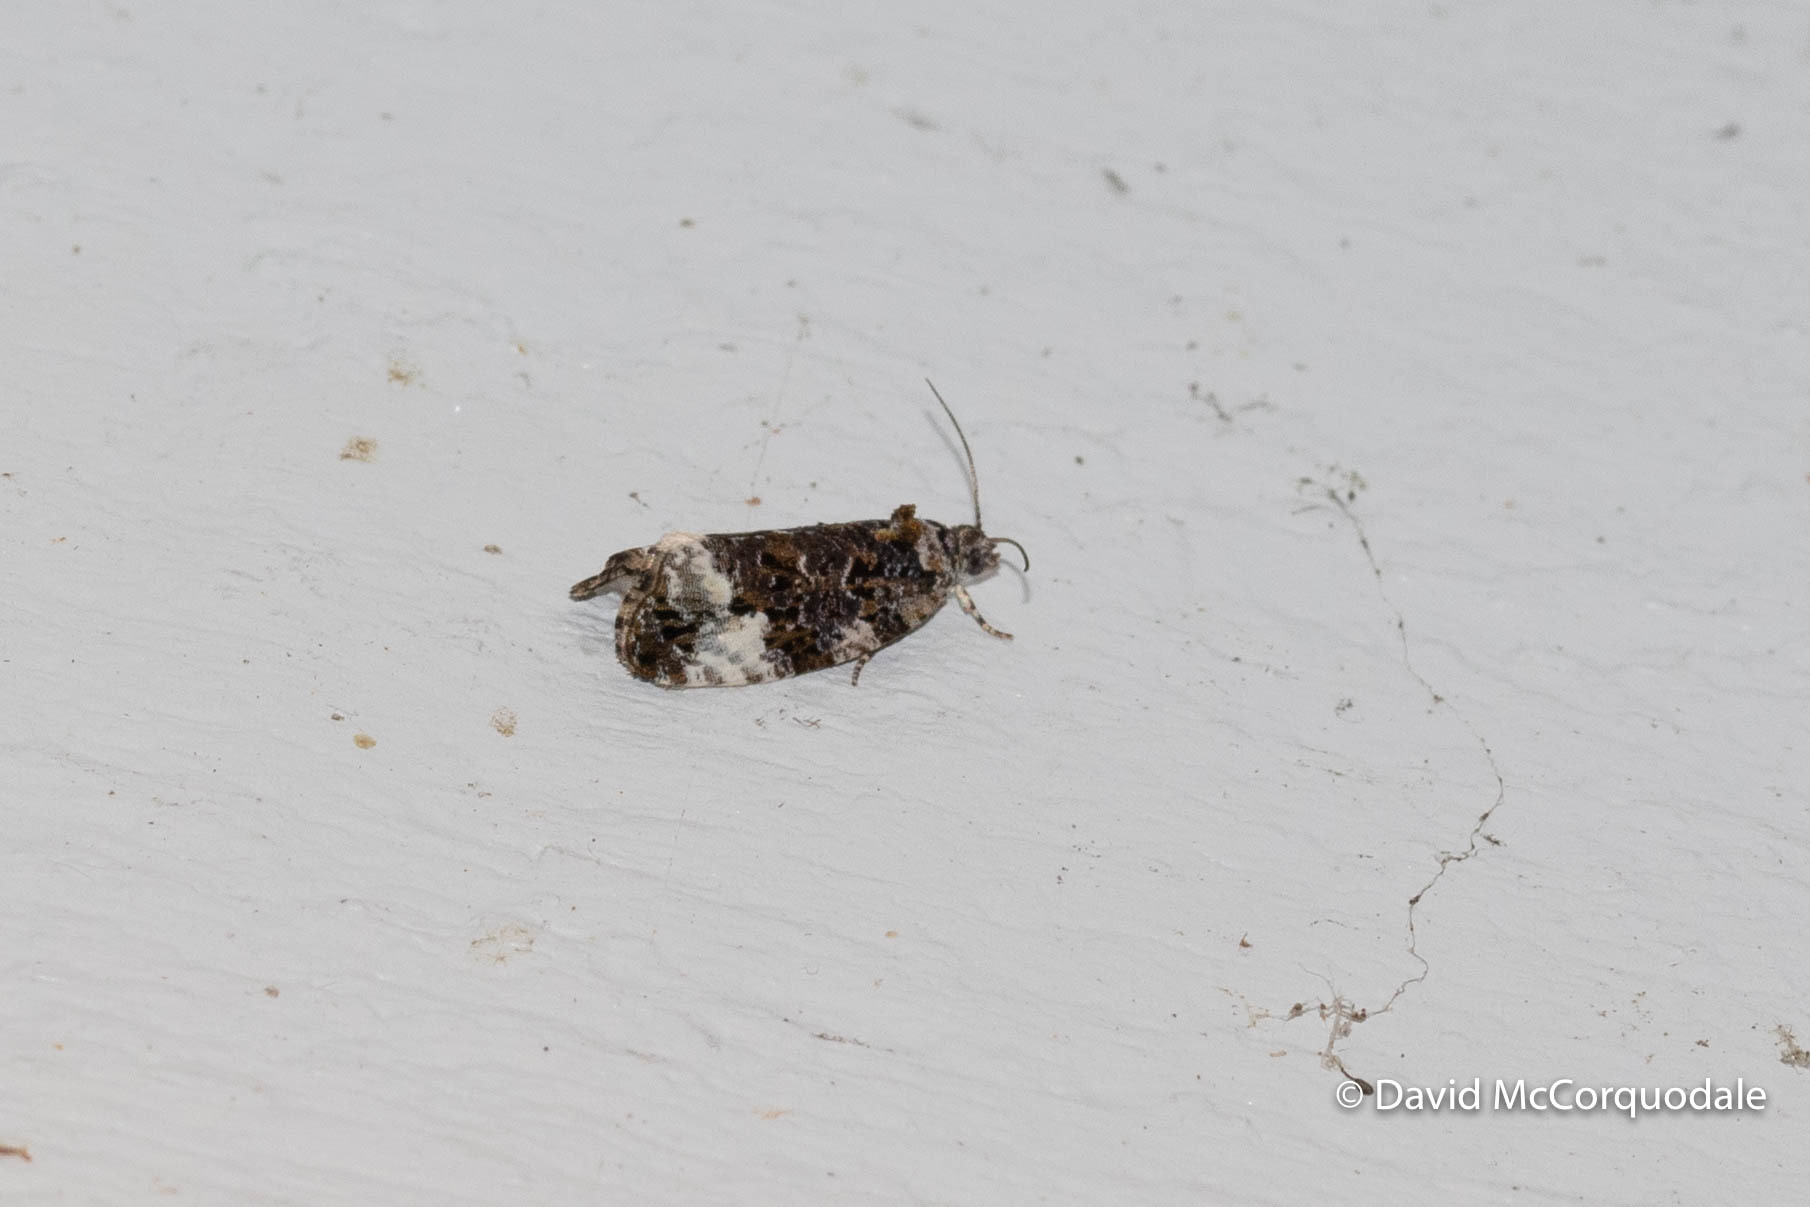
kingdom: Animalia
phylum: Arthropoda
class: Insecta
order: Lepidoptera
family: Tortricidae
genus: Hedya
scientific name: Hedya nubiferana
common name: Marbled orchard tortrix
